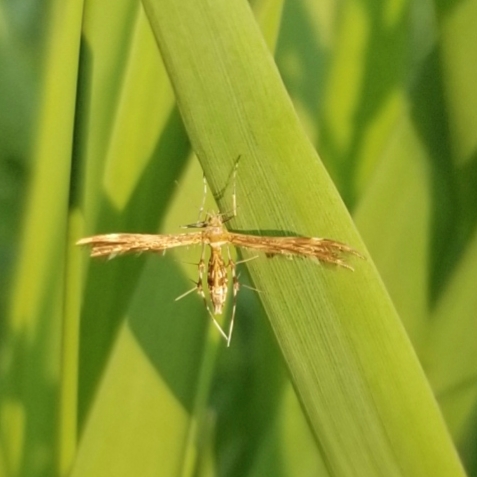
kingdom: Animalia
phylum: Arthropoda
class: Insecta
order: Lepidoptera
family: Pterophoridae
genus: Dejongia
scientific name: Dejongia lobidactylus
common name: Lobed plume moth
